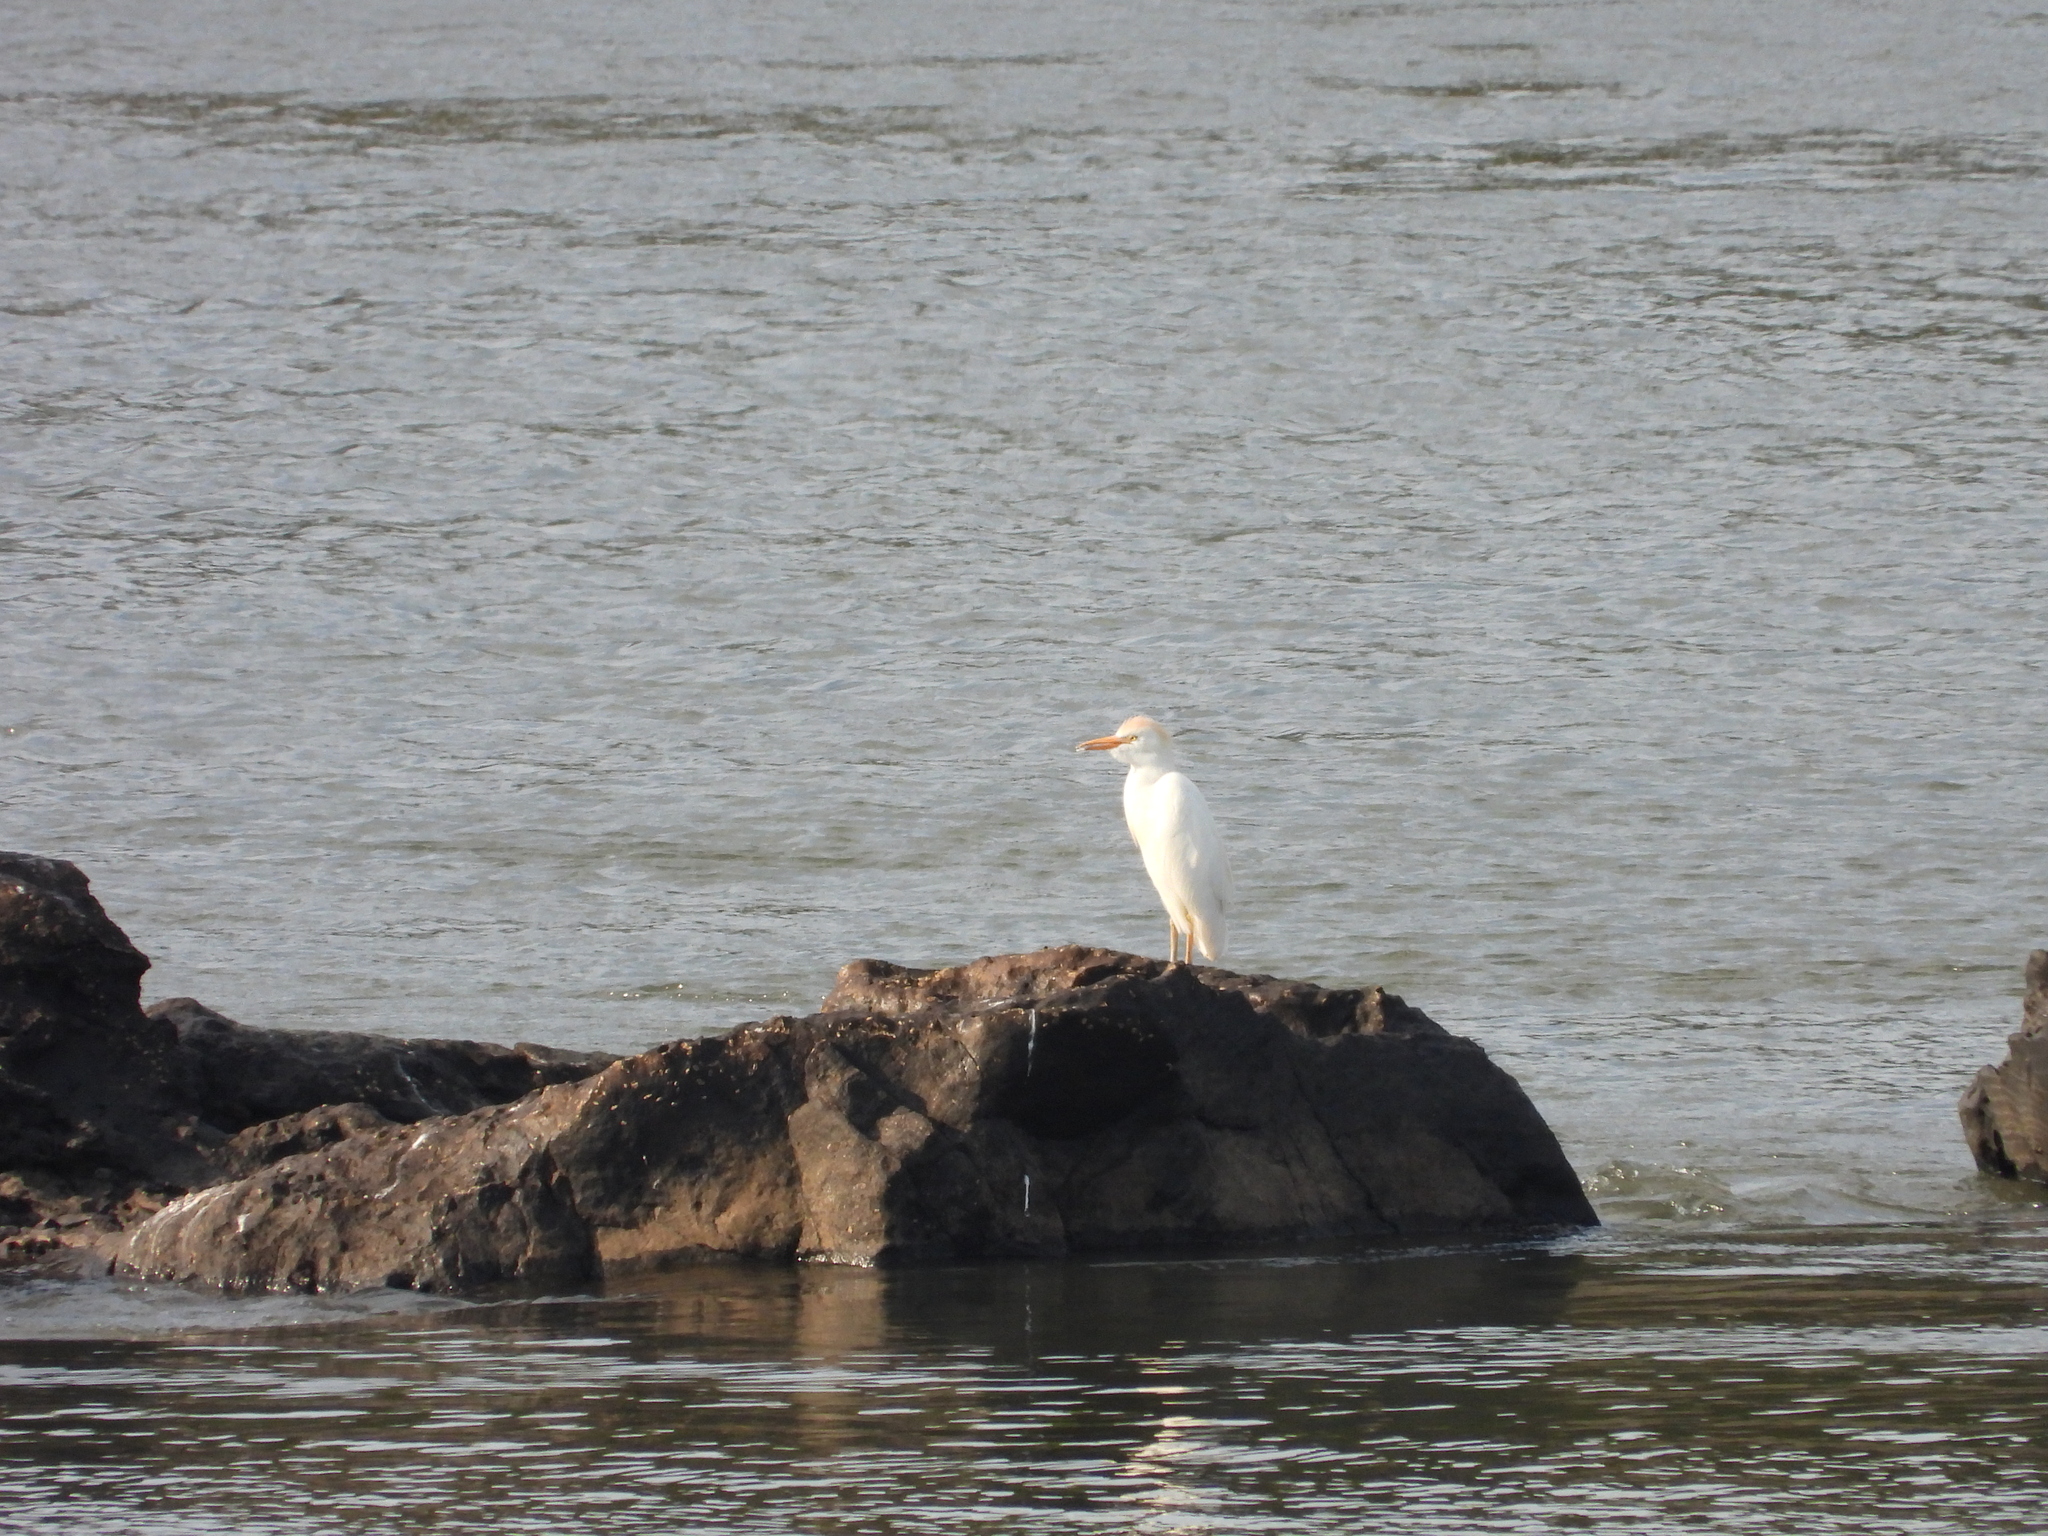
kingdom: Animalia
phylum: Chordata
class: Aves
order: Pelecaniformes
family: Ardeidae
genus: Bubulcus
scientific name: Bubulcus ibis
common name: Cattle egret
